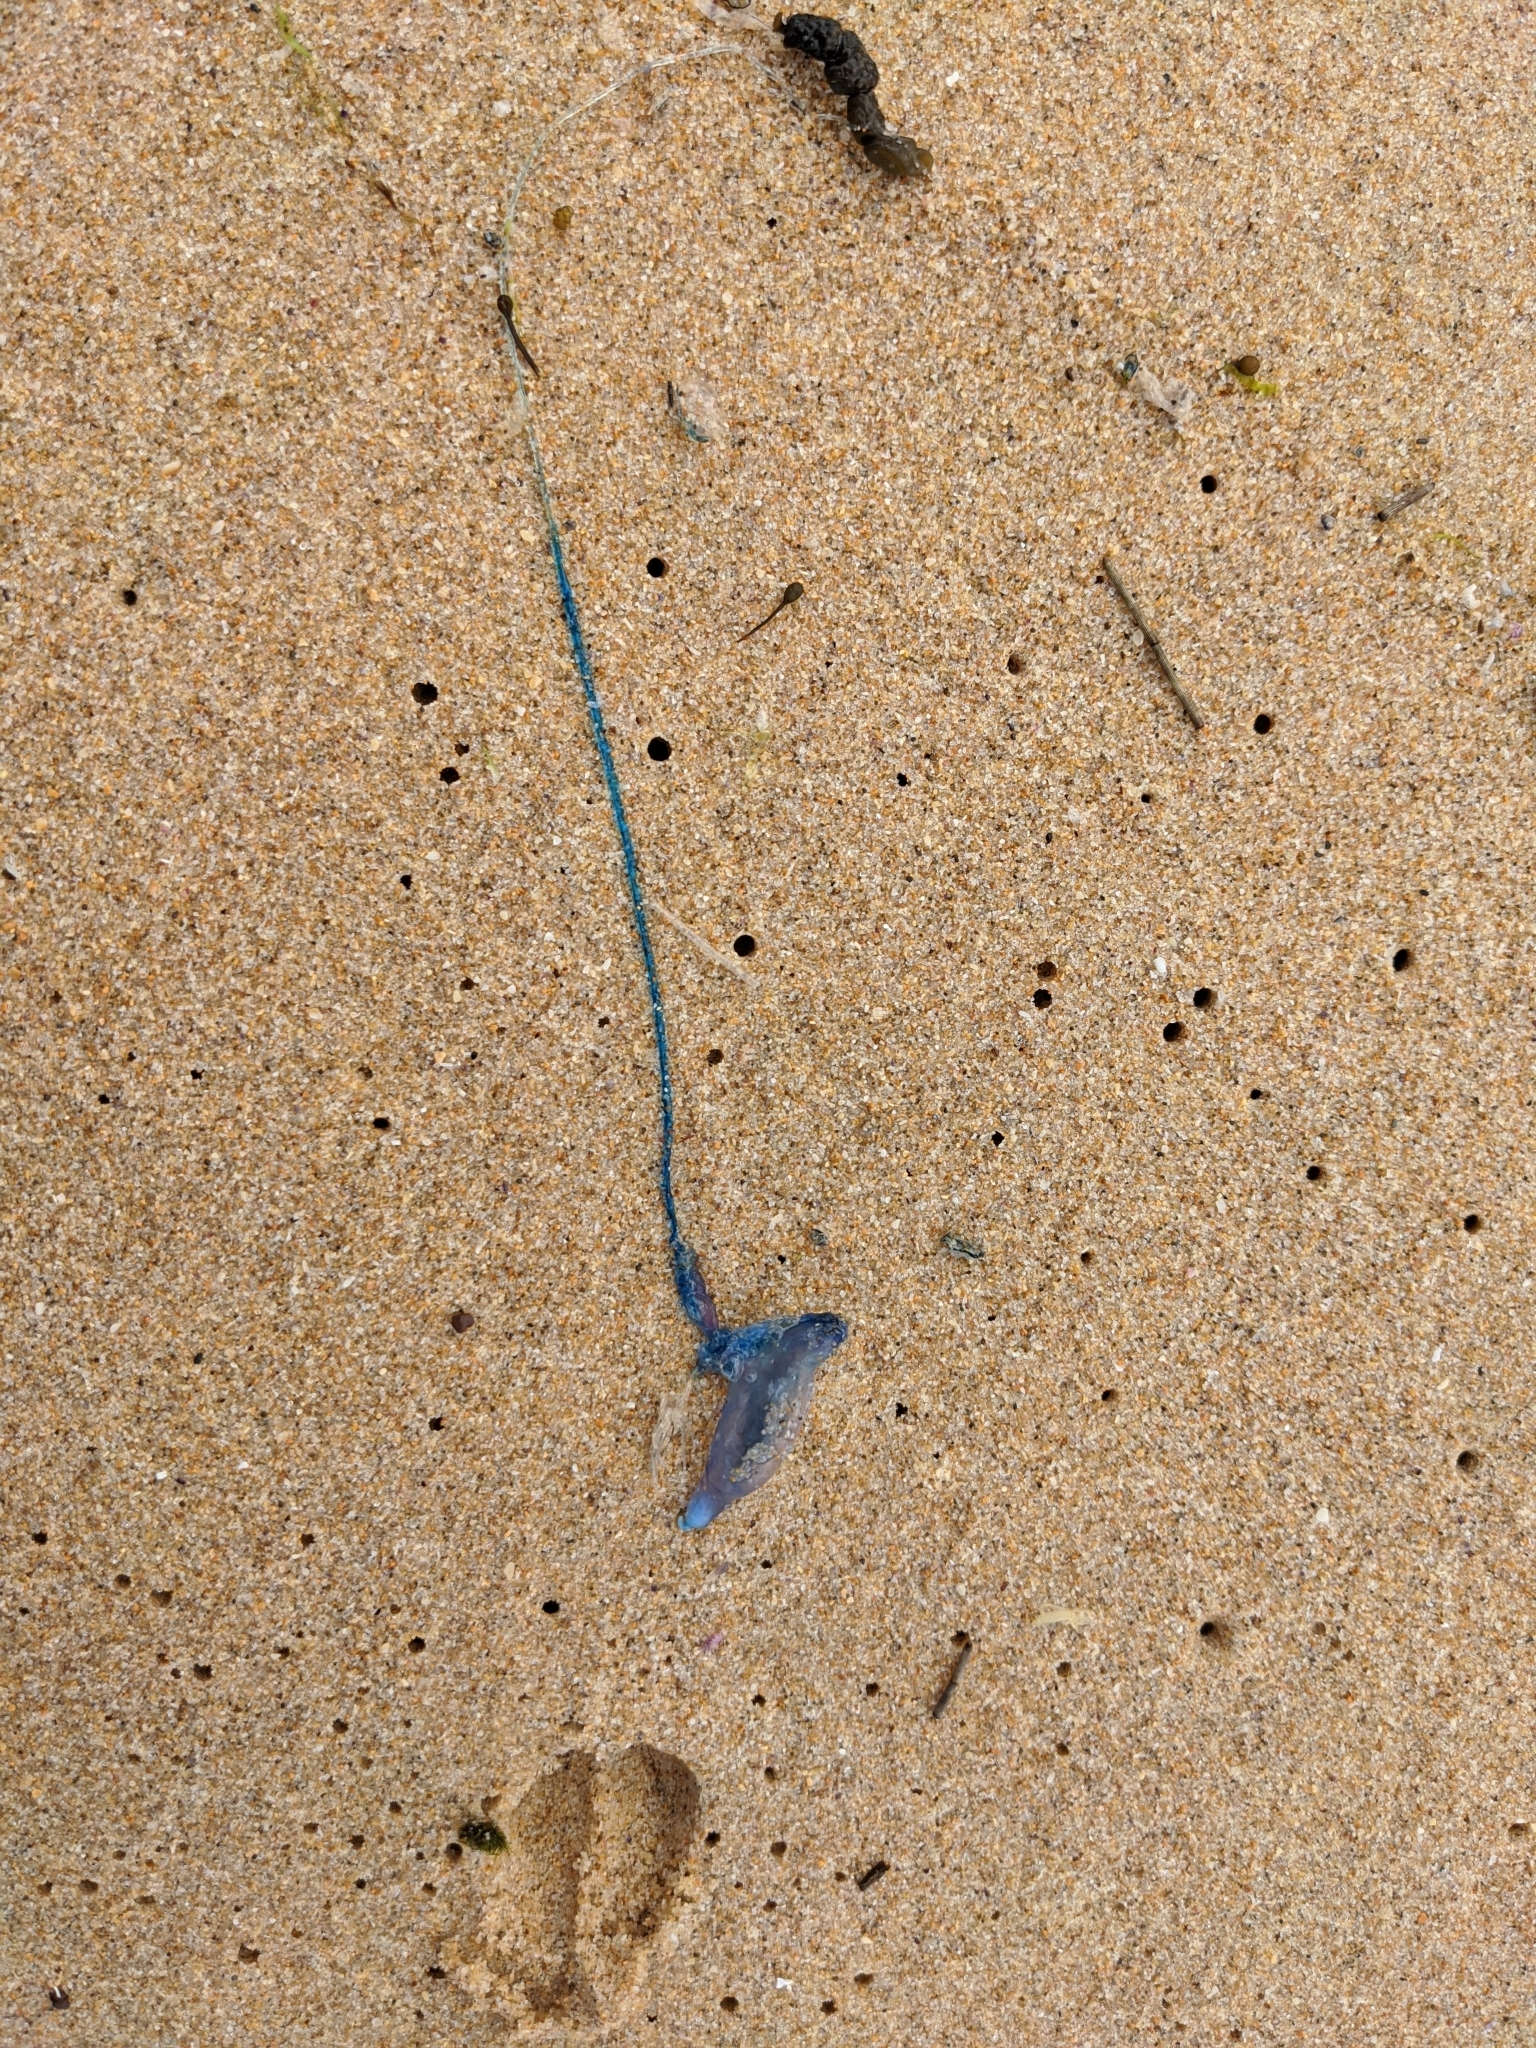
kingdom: Animalia
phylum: Cnidaria
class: Hydrozoa
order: Siphonophorae
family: Physaliidae
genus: Physalia
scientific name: Physalia physalis
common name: Portuguese man-of-war
